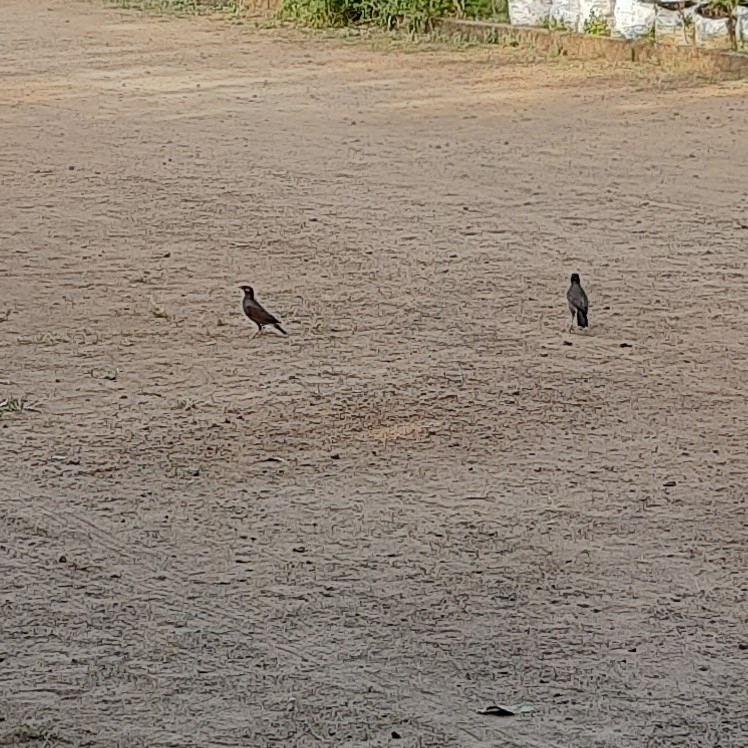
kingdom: Animalia
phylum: Chordata
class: Aves
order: Passeriformes
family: Sturnidae
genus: Acridotheres
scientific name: Acridotheres tristis
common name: Common myna
